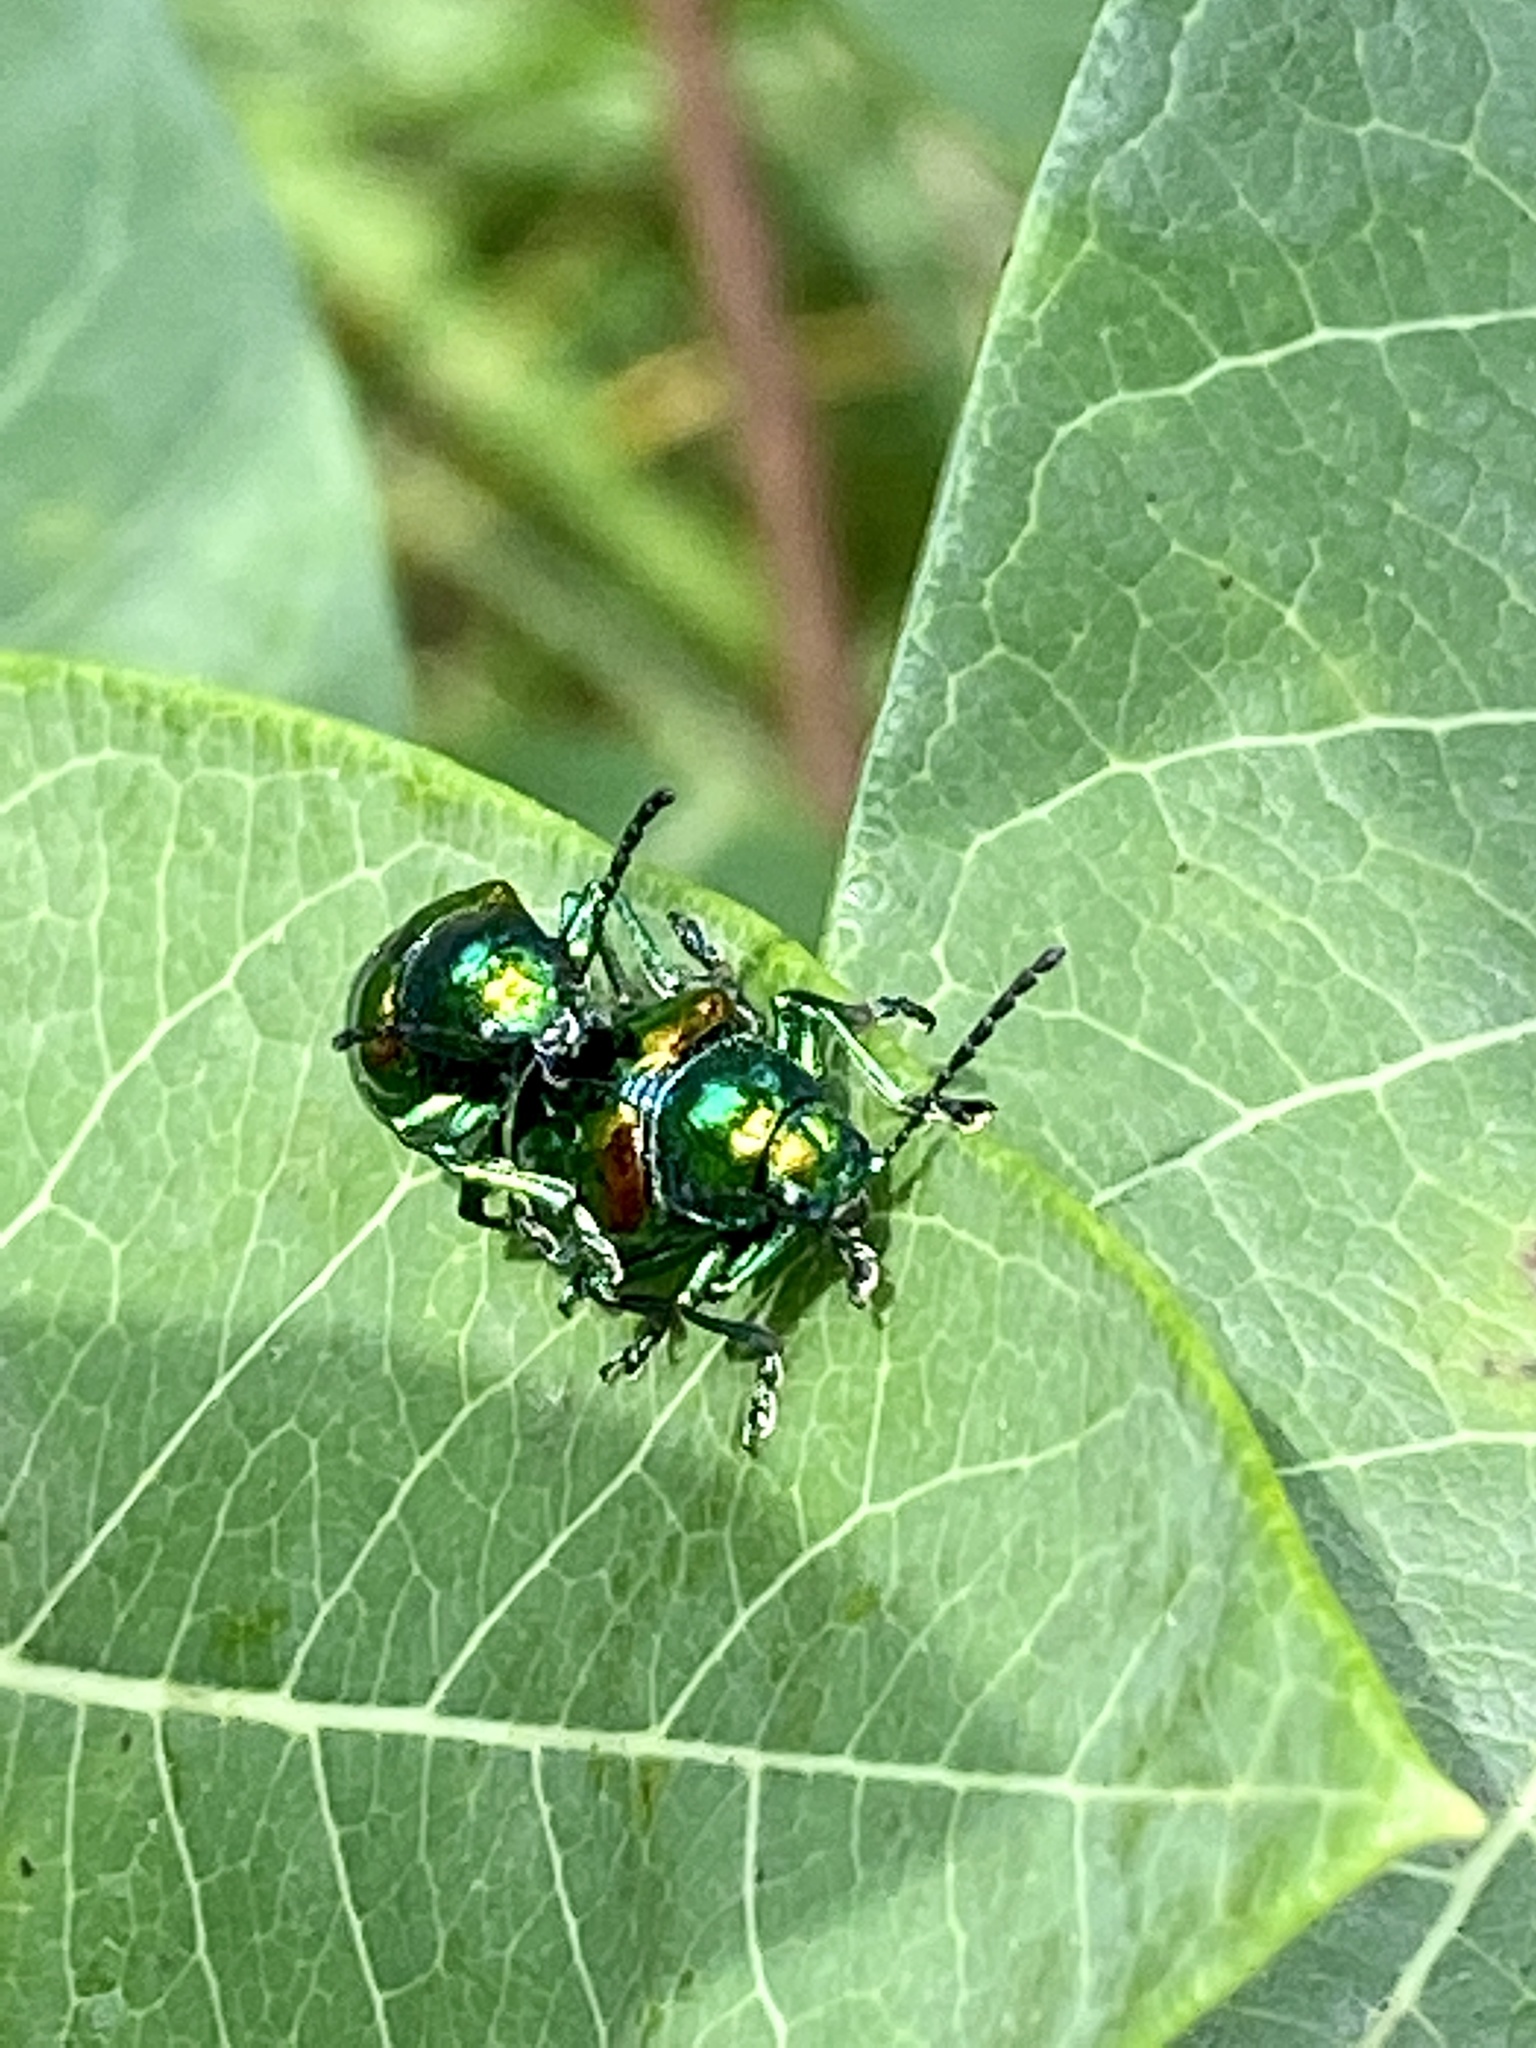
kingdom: Animalia
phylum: Arthropoda
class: Insecta
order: Coleoptera
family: Chrysomelidae
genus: Chrysochus
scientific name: Chrysochus auratus
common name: Dogbane leaf beetle
